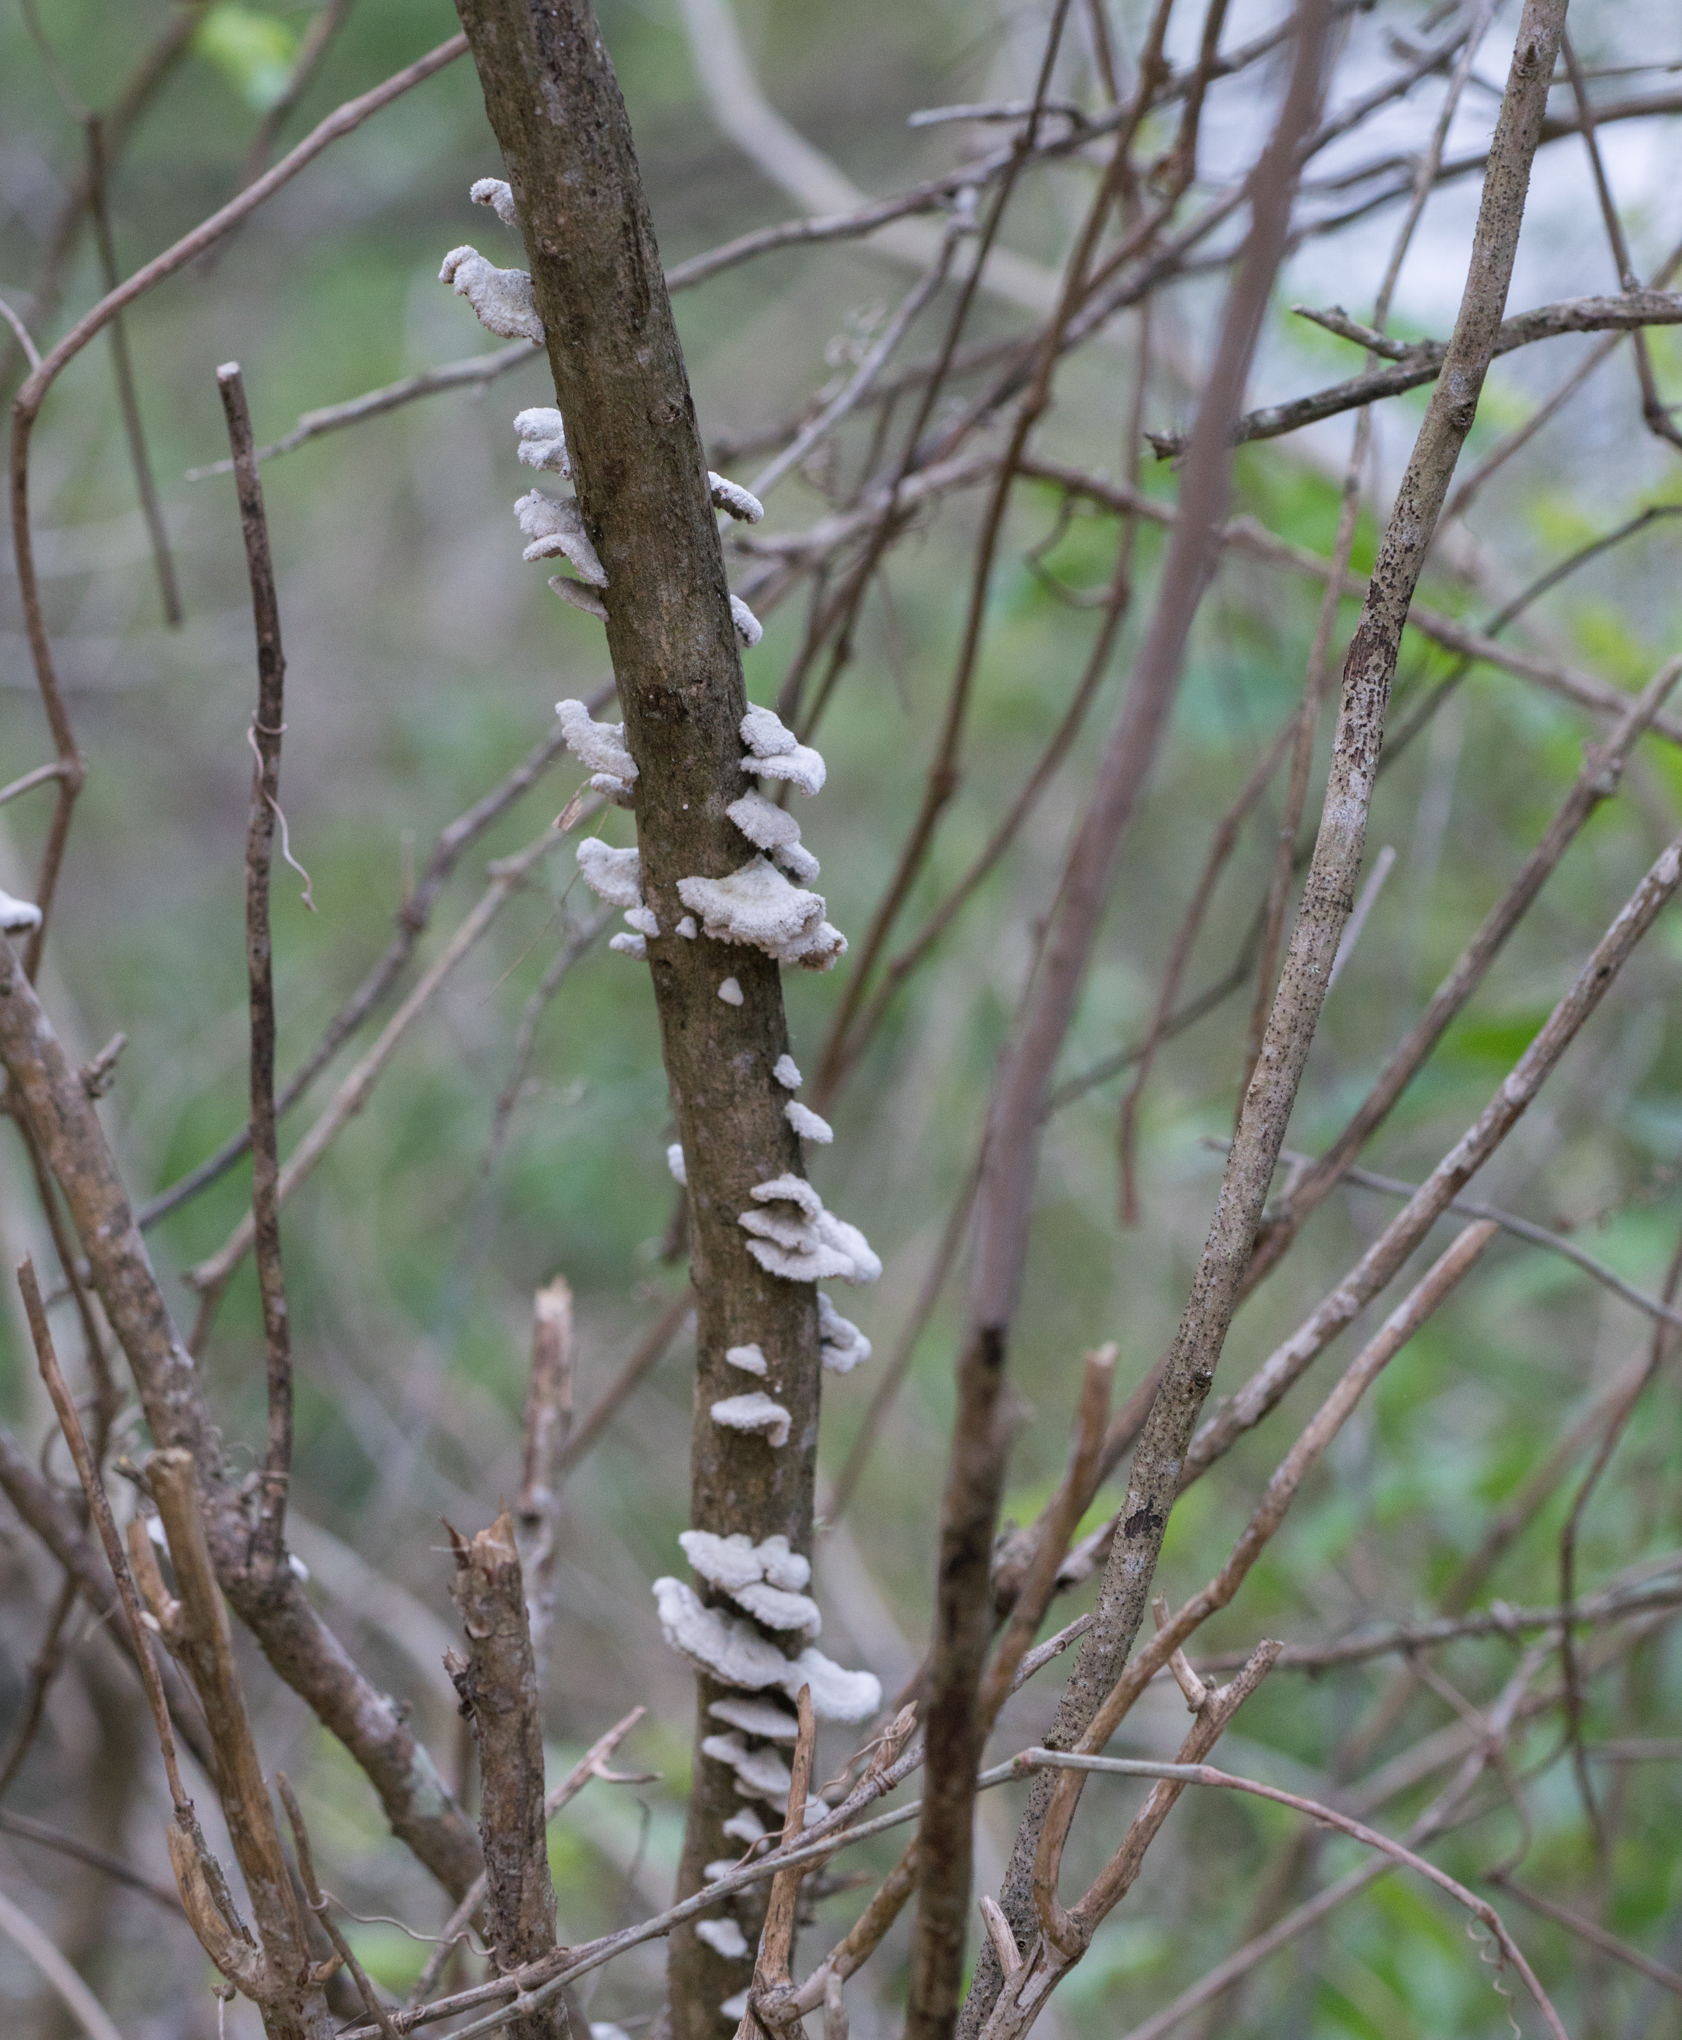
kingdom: Fungi
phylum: Basidiomycota
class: Agaricomycetes
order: Agaricales
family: Schizophyllaceae
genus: Schizophyllum
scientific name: Schizophyllum commune
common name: Common porecrust
